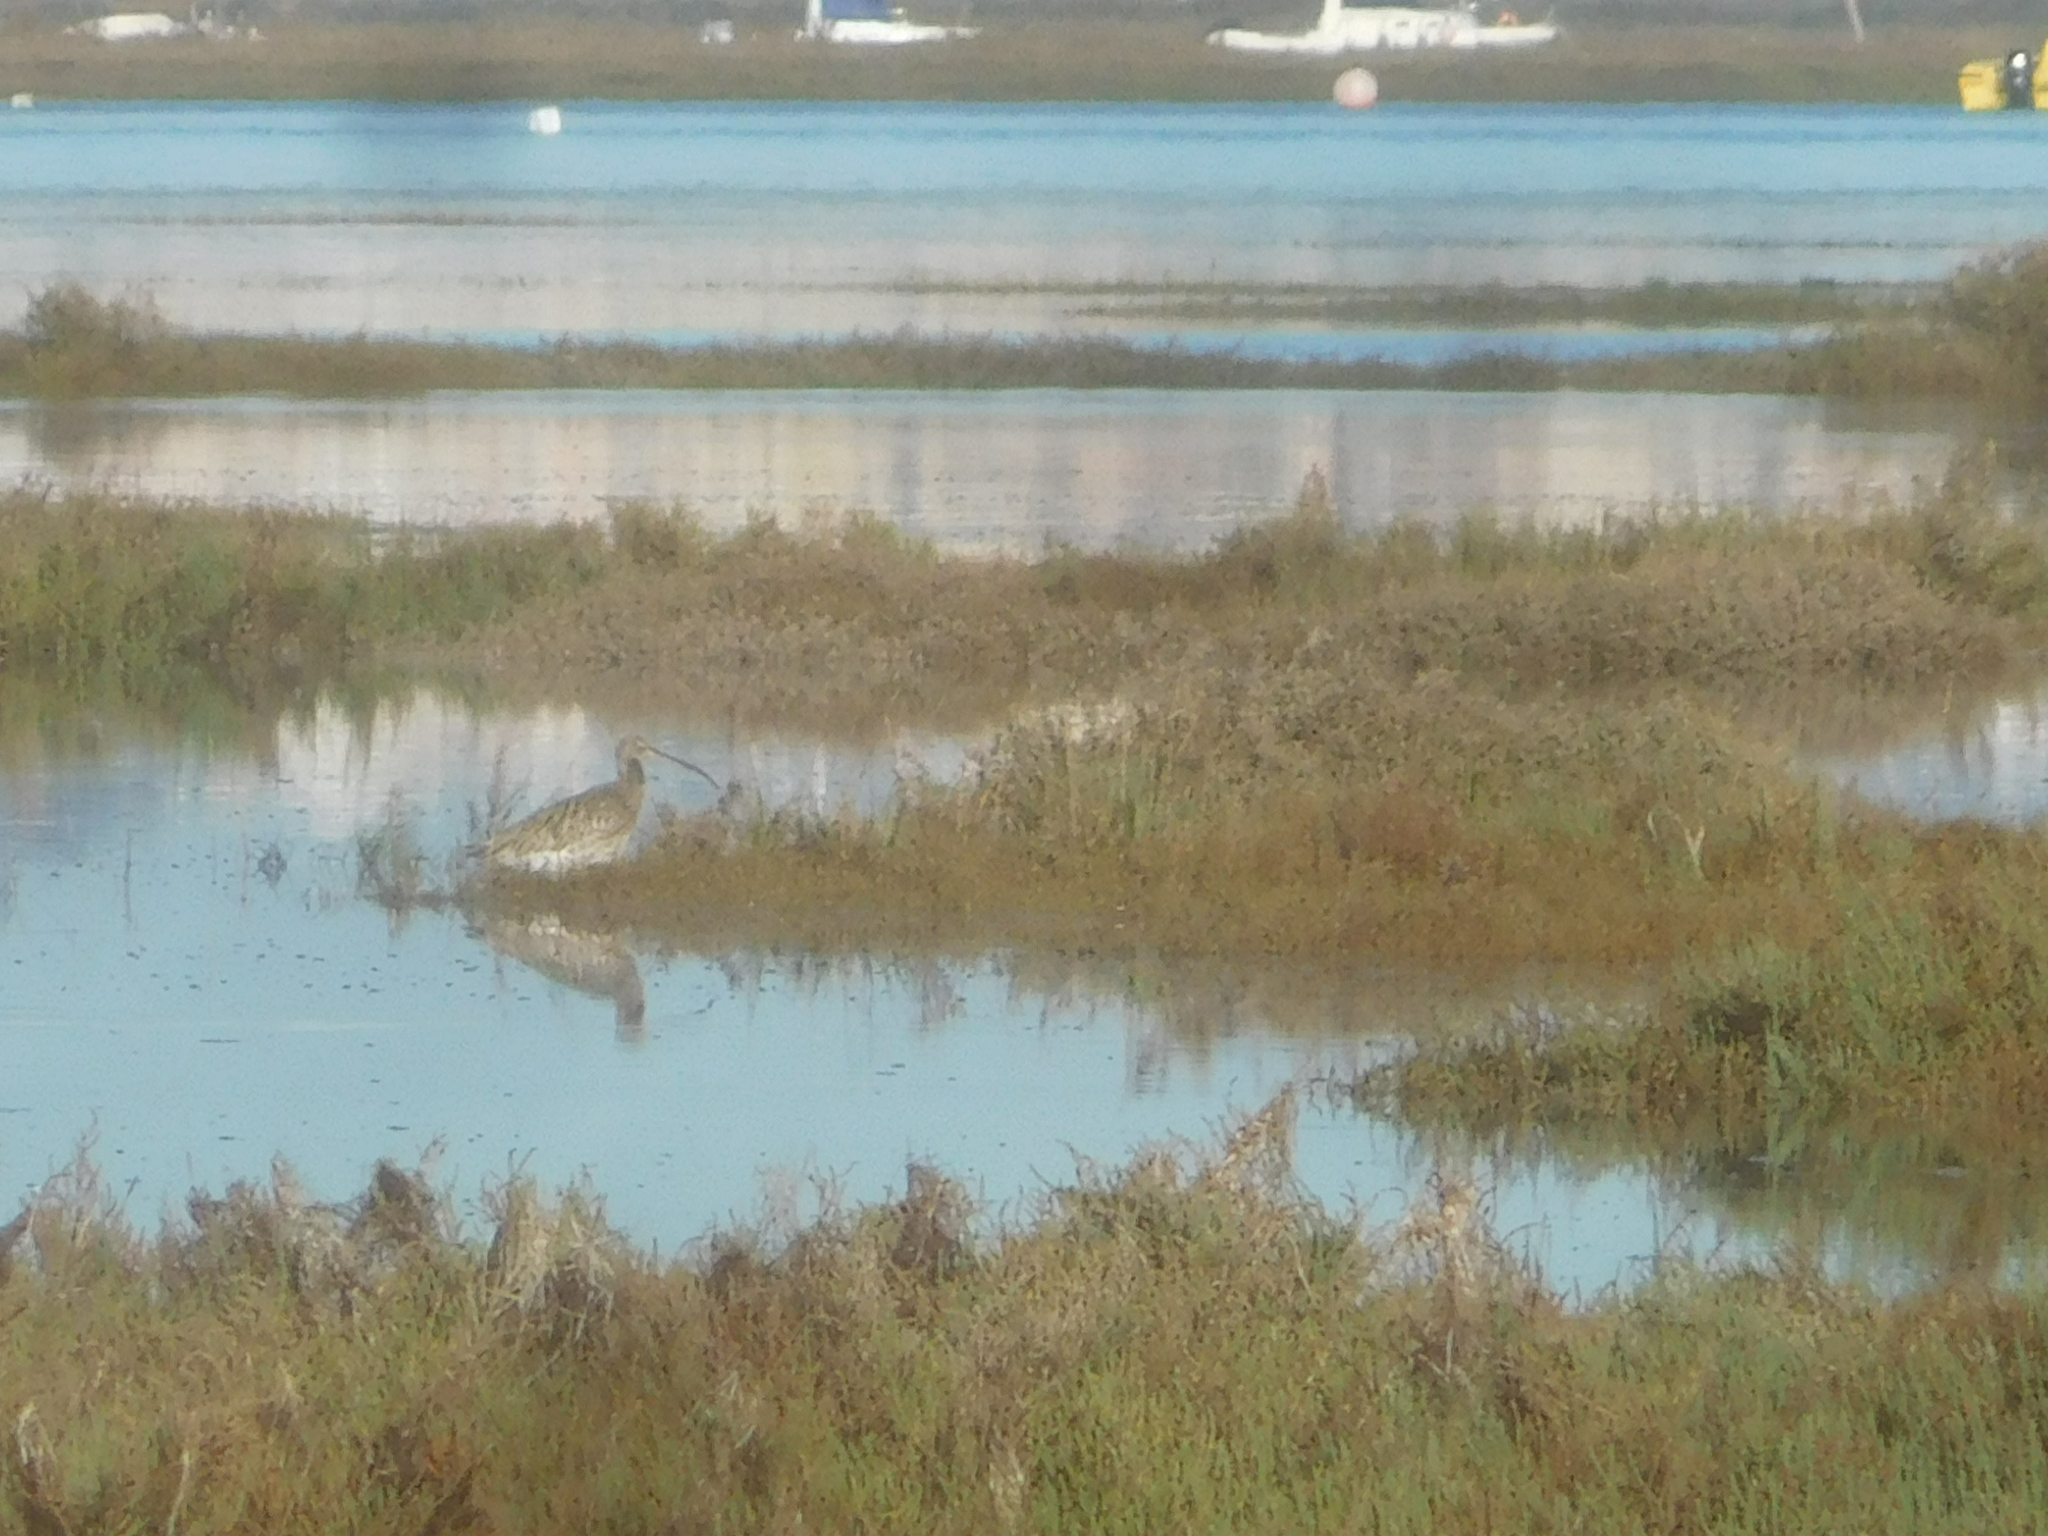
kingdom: Animalia
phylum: Chordata
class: Aves
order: Charadriiformes
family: Scolopacidae
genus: Numenius
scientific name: Numenius arquata
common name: Eurasian curlew
